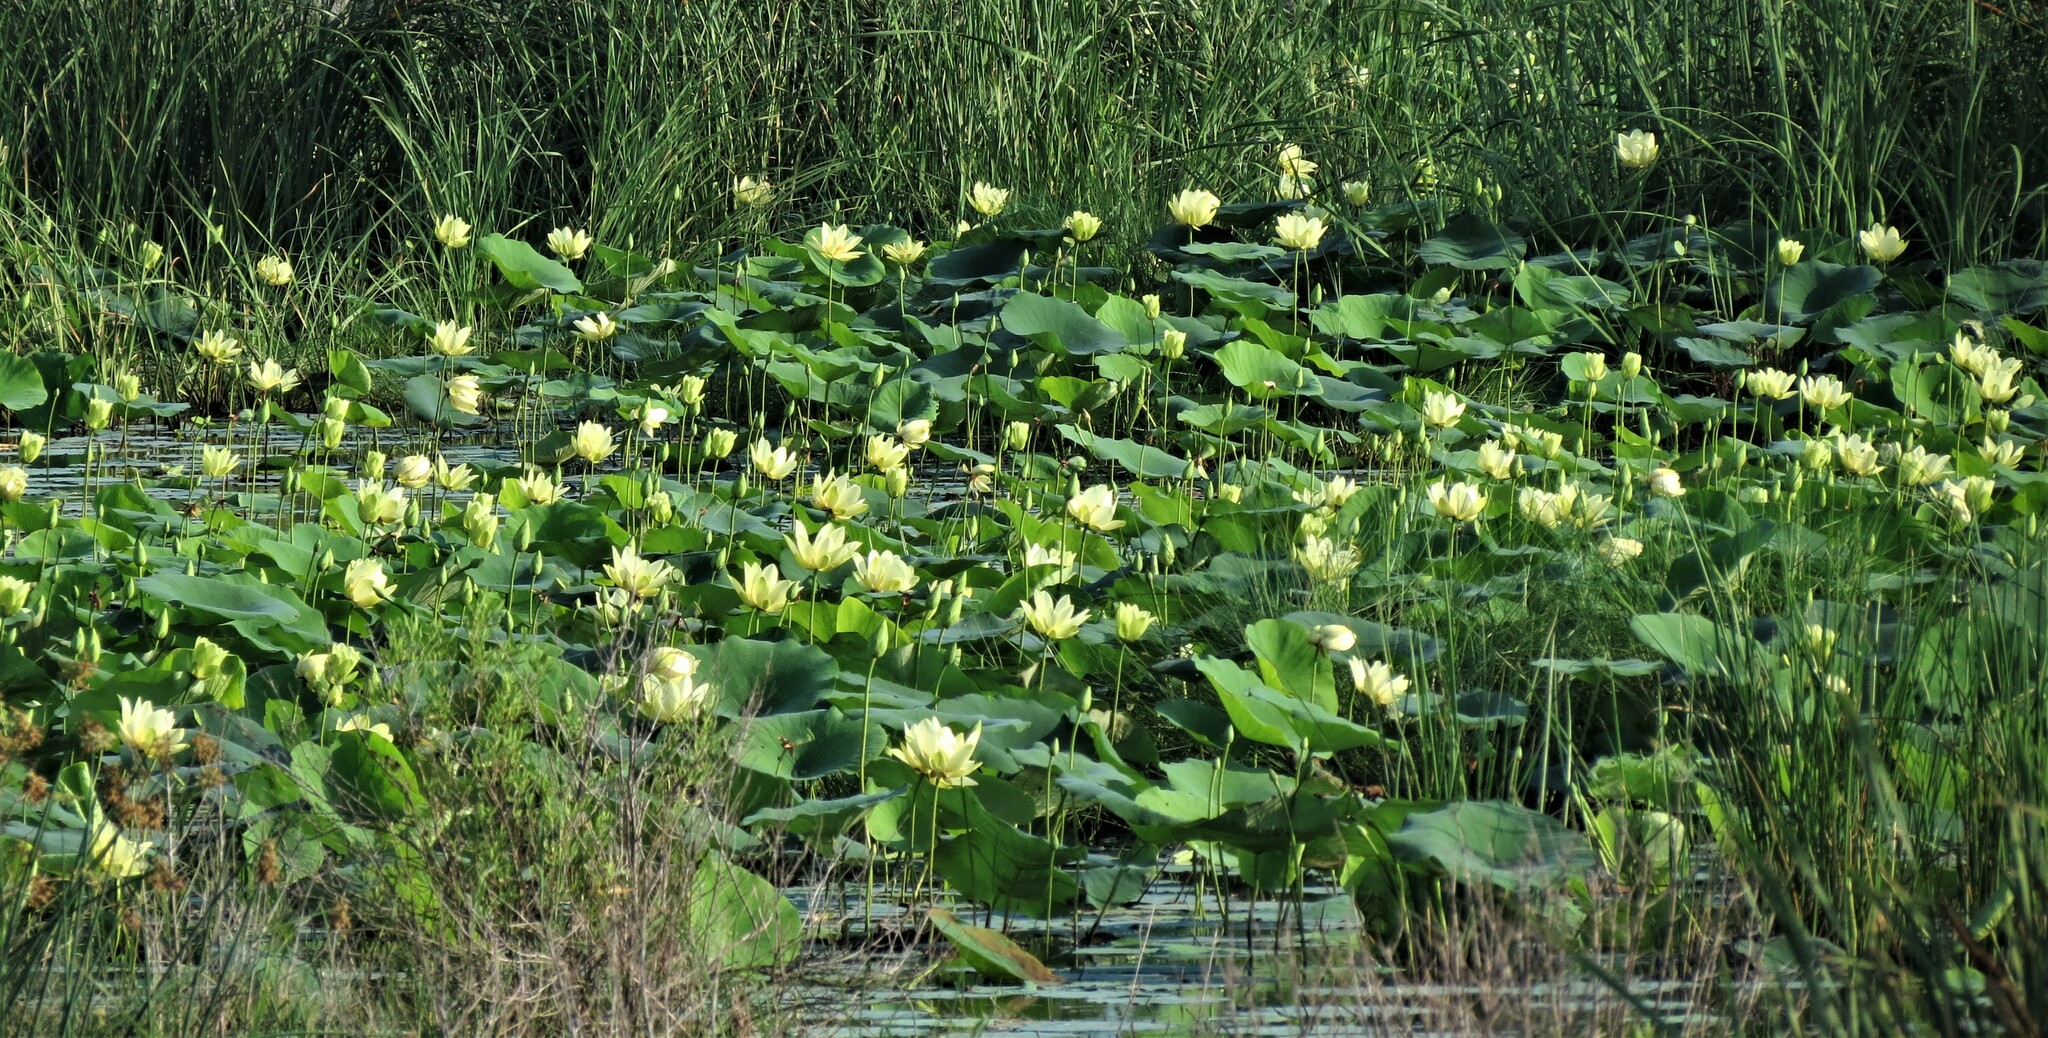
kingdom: Plantae
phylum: Tracheophyta
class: Magnoliopsida
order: Proteales
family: Nelumbonaceae
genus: Nelumbo
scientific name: Nelumbo lutea
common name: American lotus
